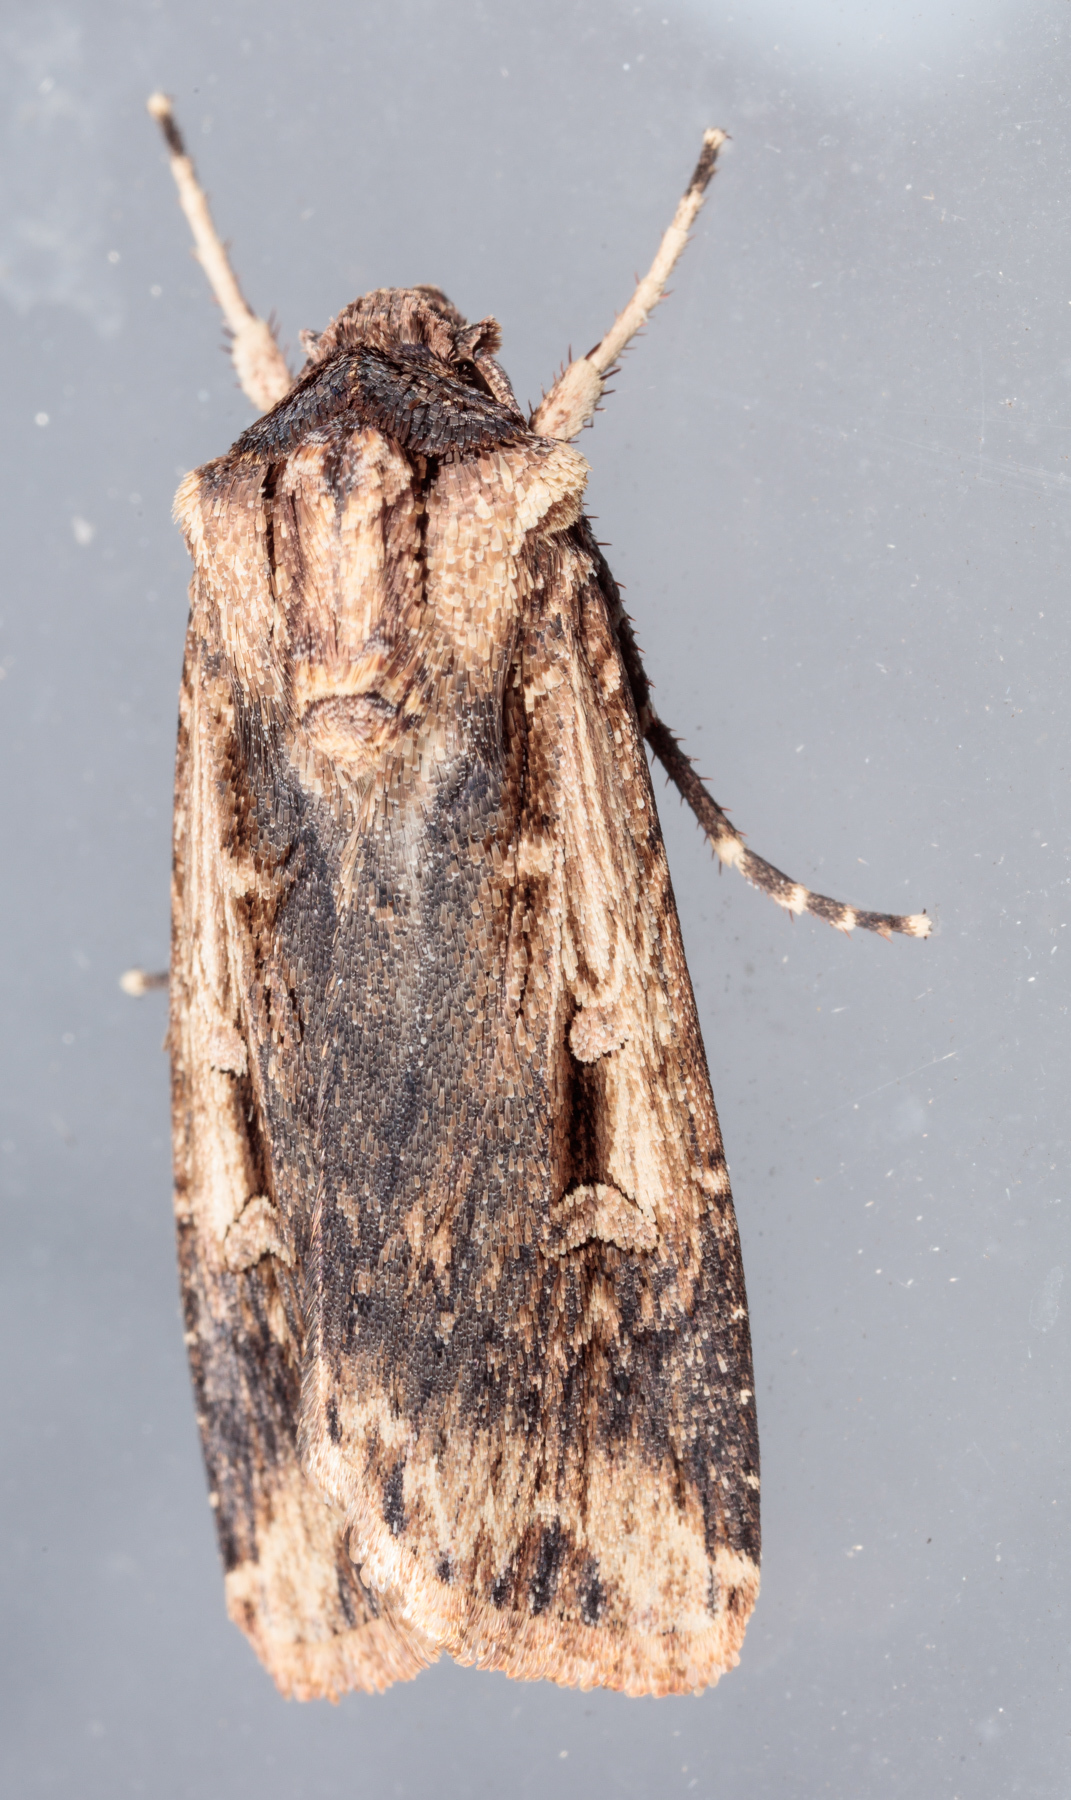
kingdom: Animalia
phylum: Arthropoda
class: Insecta
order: Lepidoptera
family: Noctuidae
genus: Feltia
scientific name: Feltia subterranea
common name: Granulate cutworm
